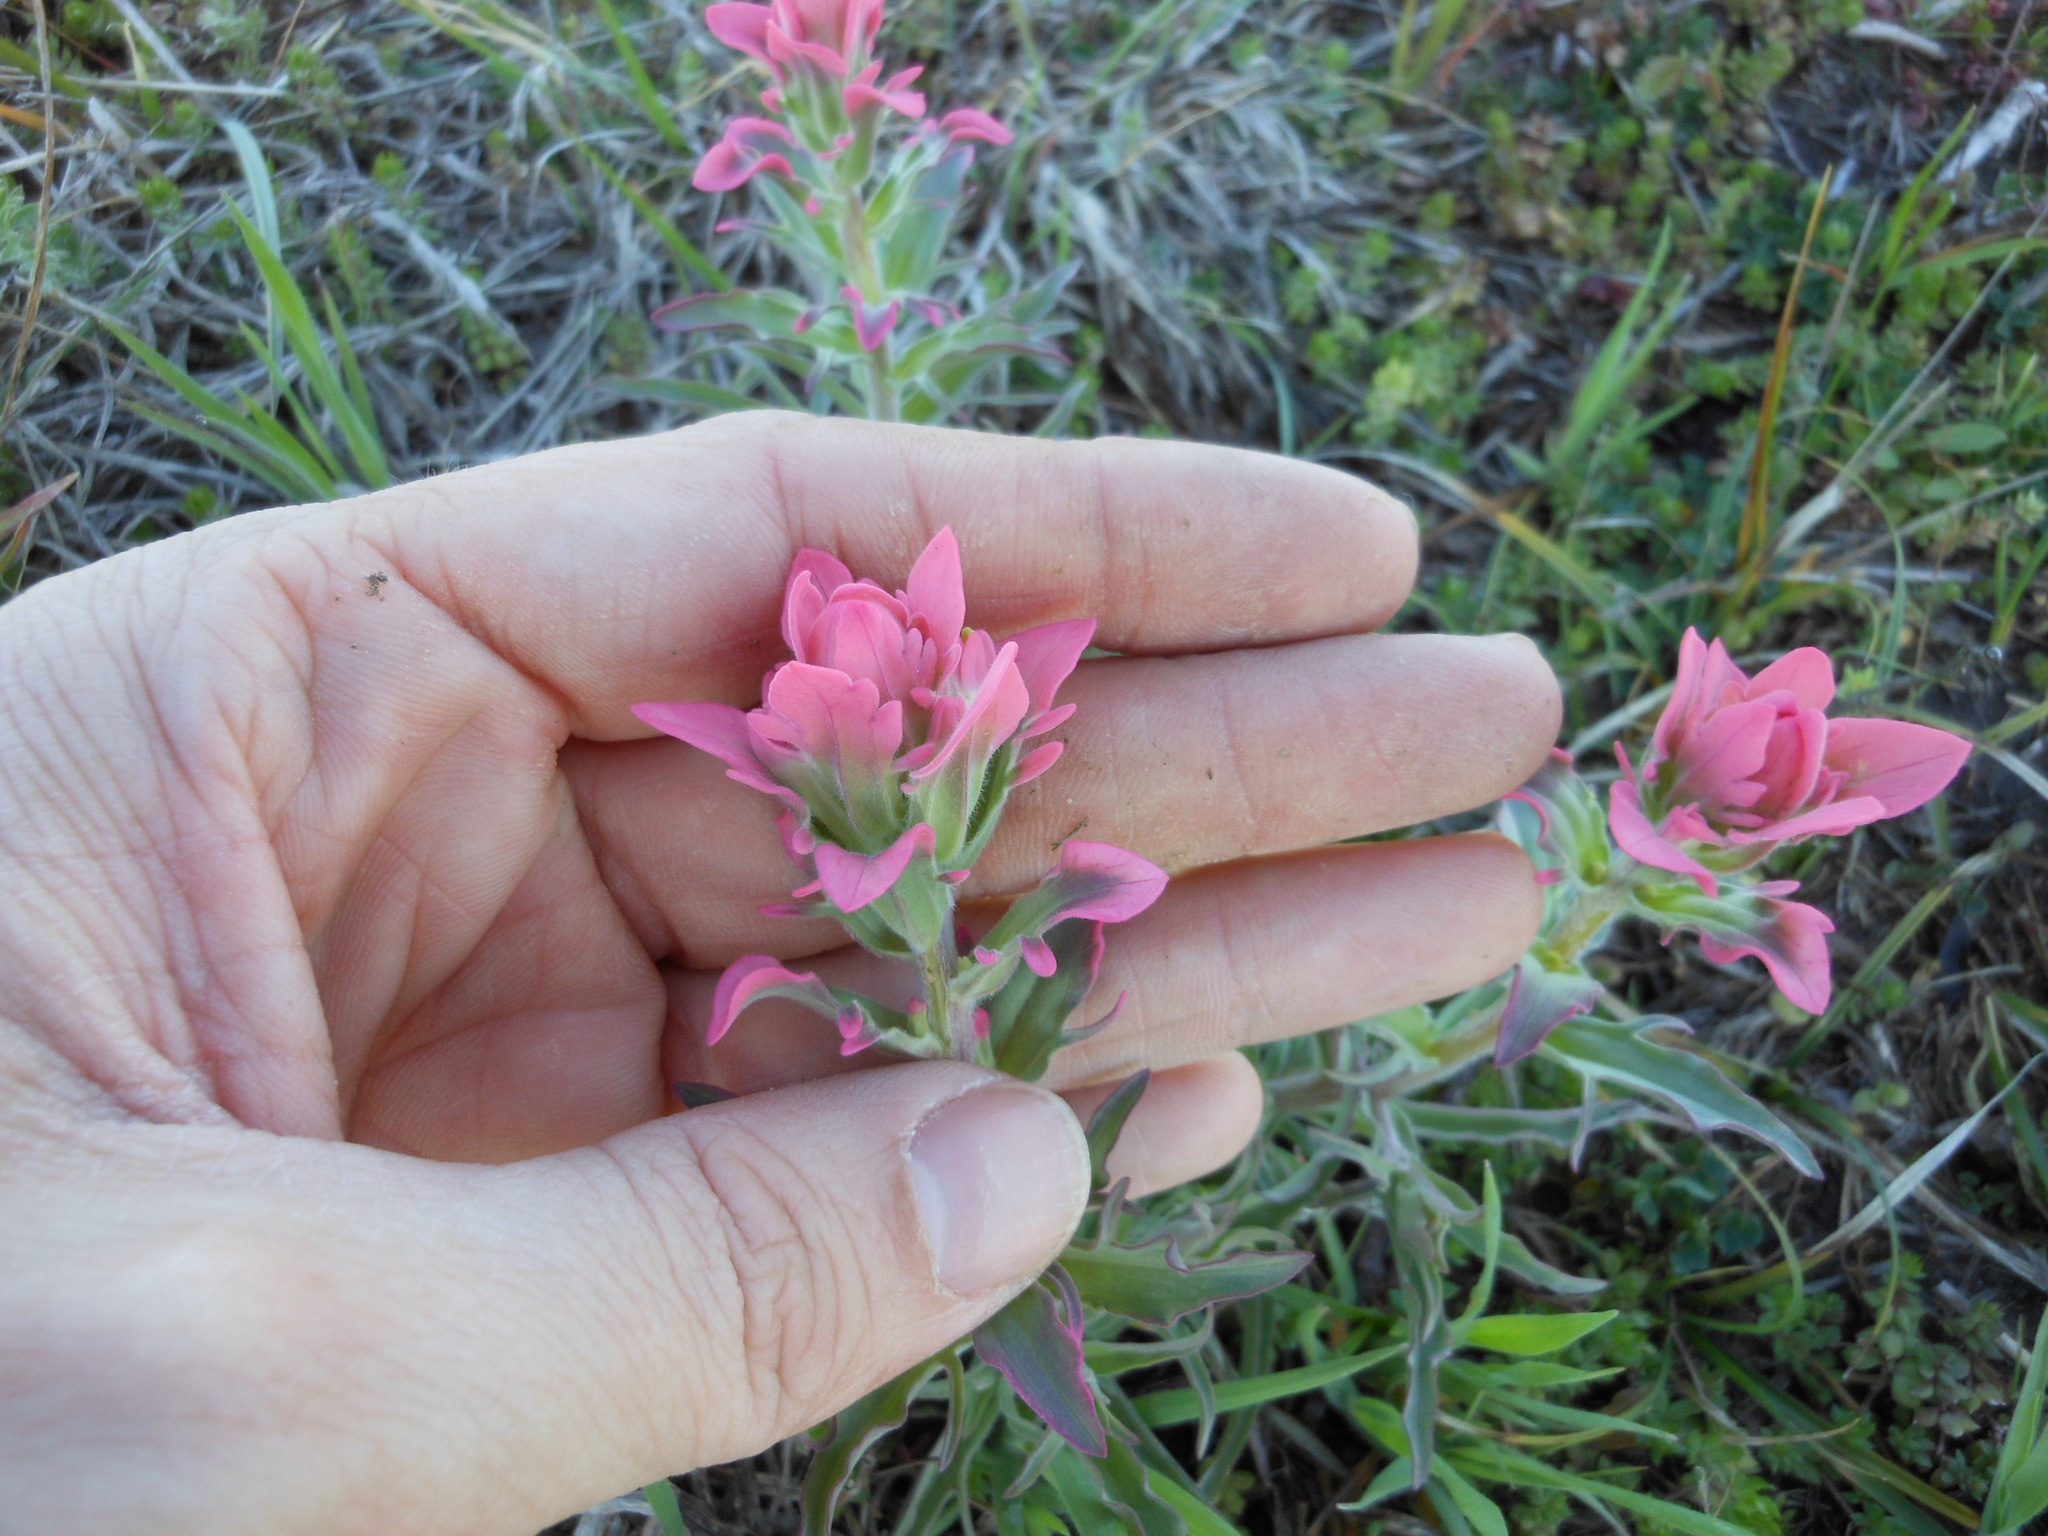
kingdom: Plantae
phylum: Tracheophyta
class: Magnoliopsida
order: Lamiales
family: Orobanchaceae
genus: Castilleja
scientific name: Castilleja purpurea
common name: Plains paintbrush
